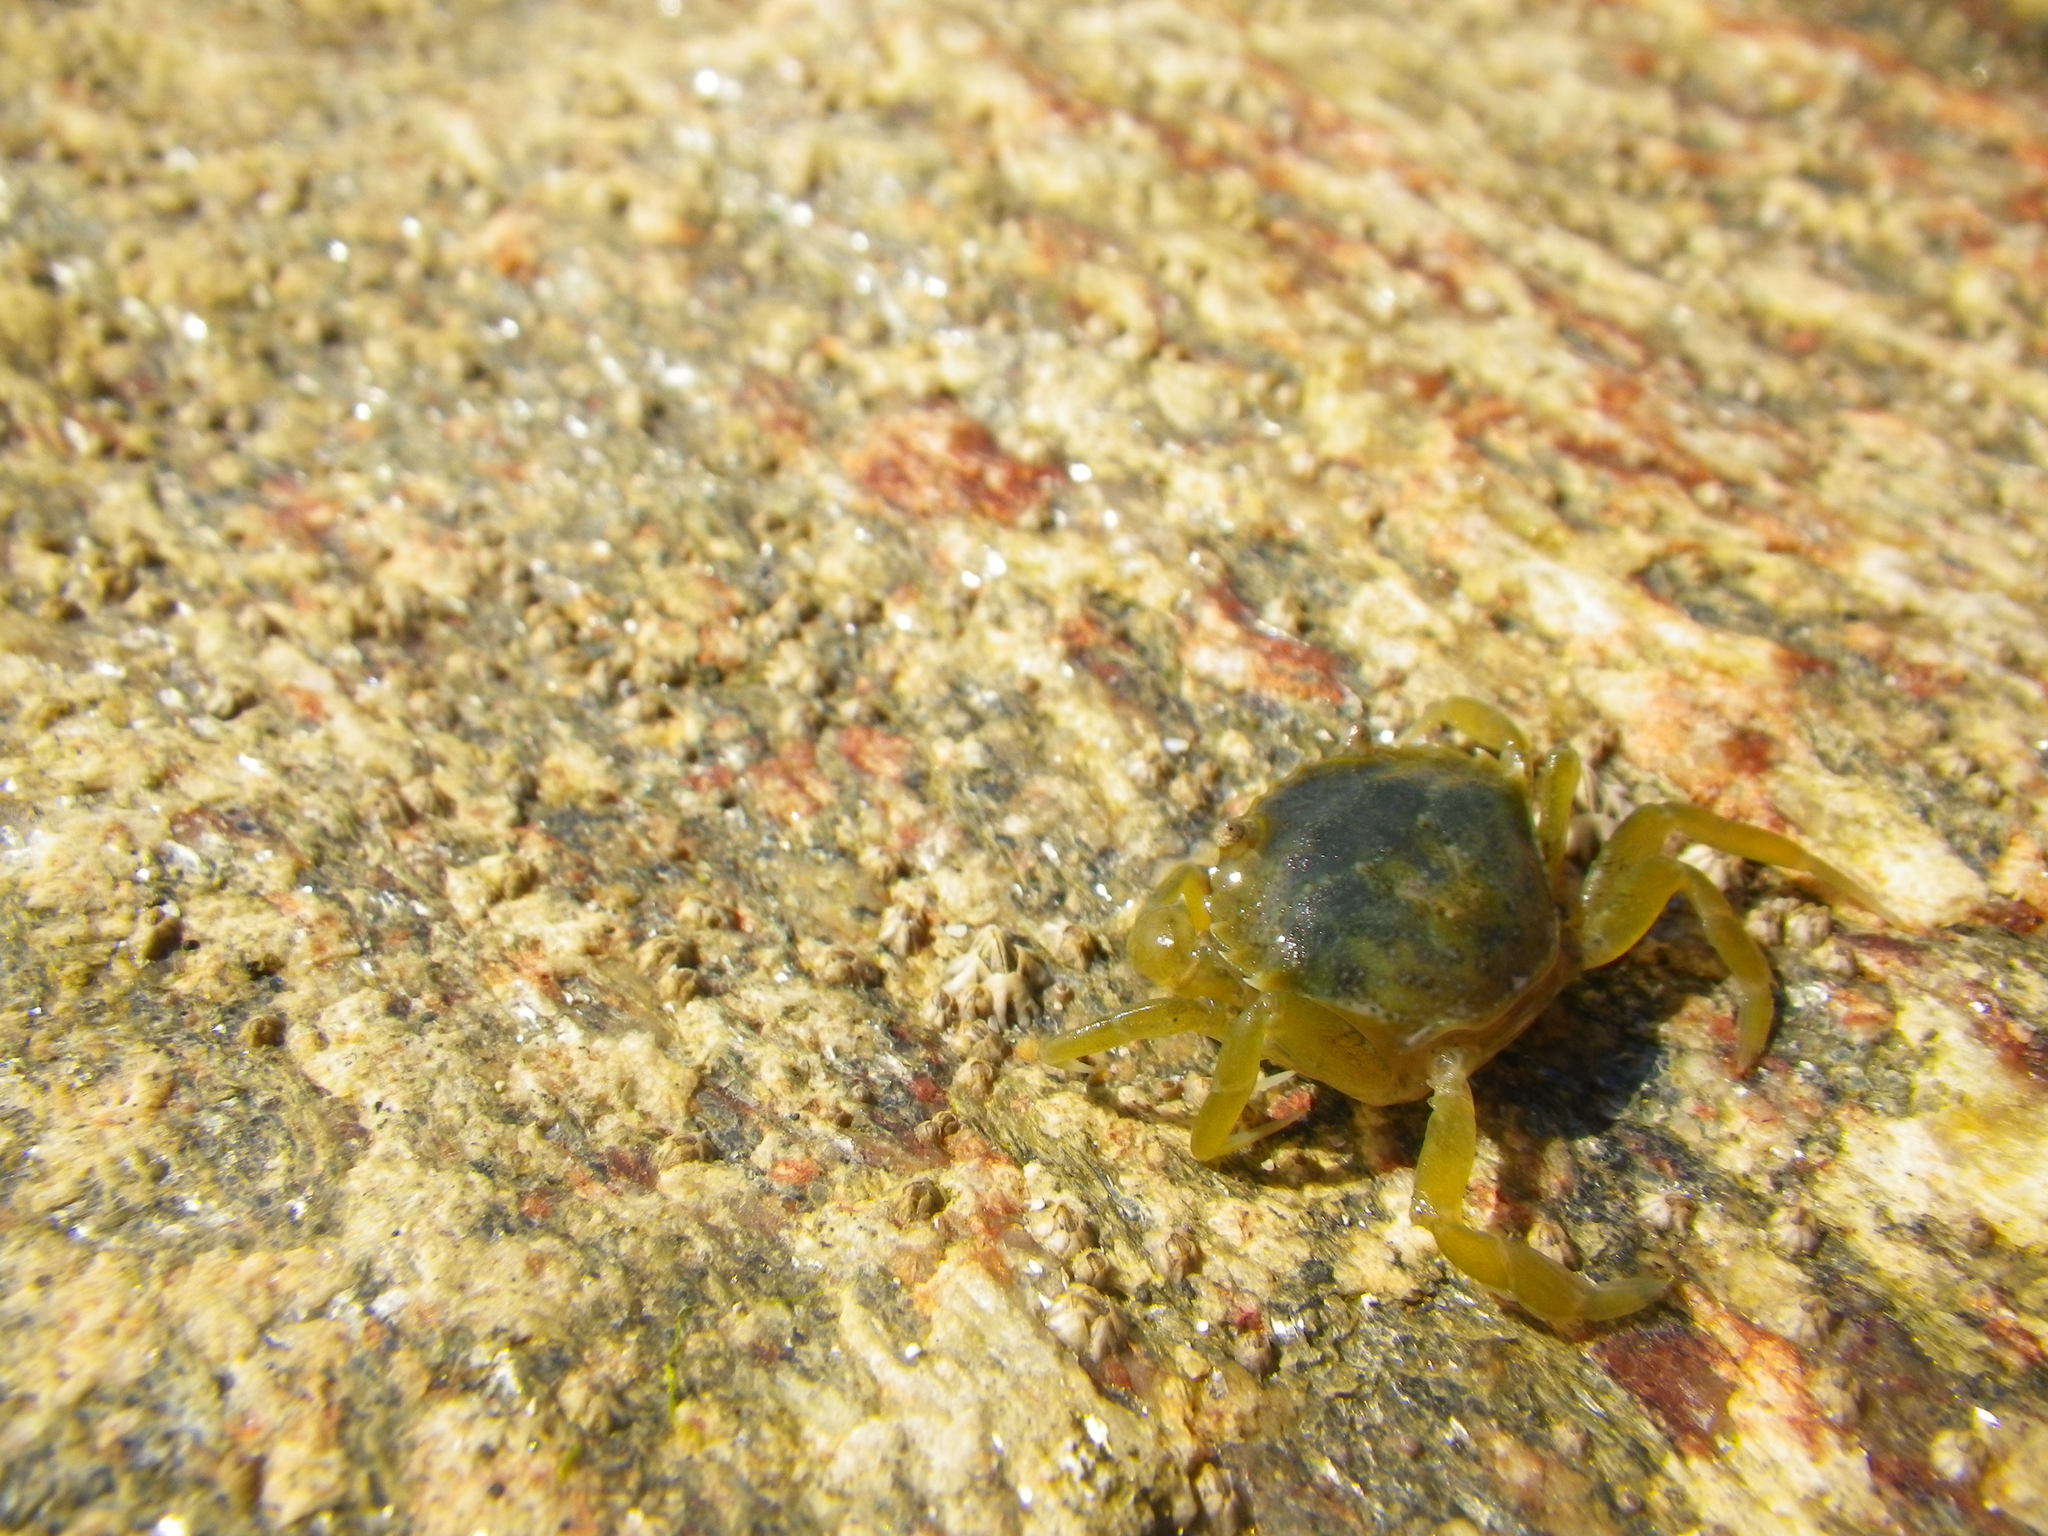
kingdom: Animalia
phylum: Arthropoda
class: Malacostraca
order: Decapoda
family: Carcinidae
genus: Carcinus
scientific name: Carcinus maenas
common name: European green crab
